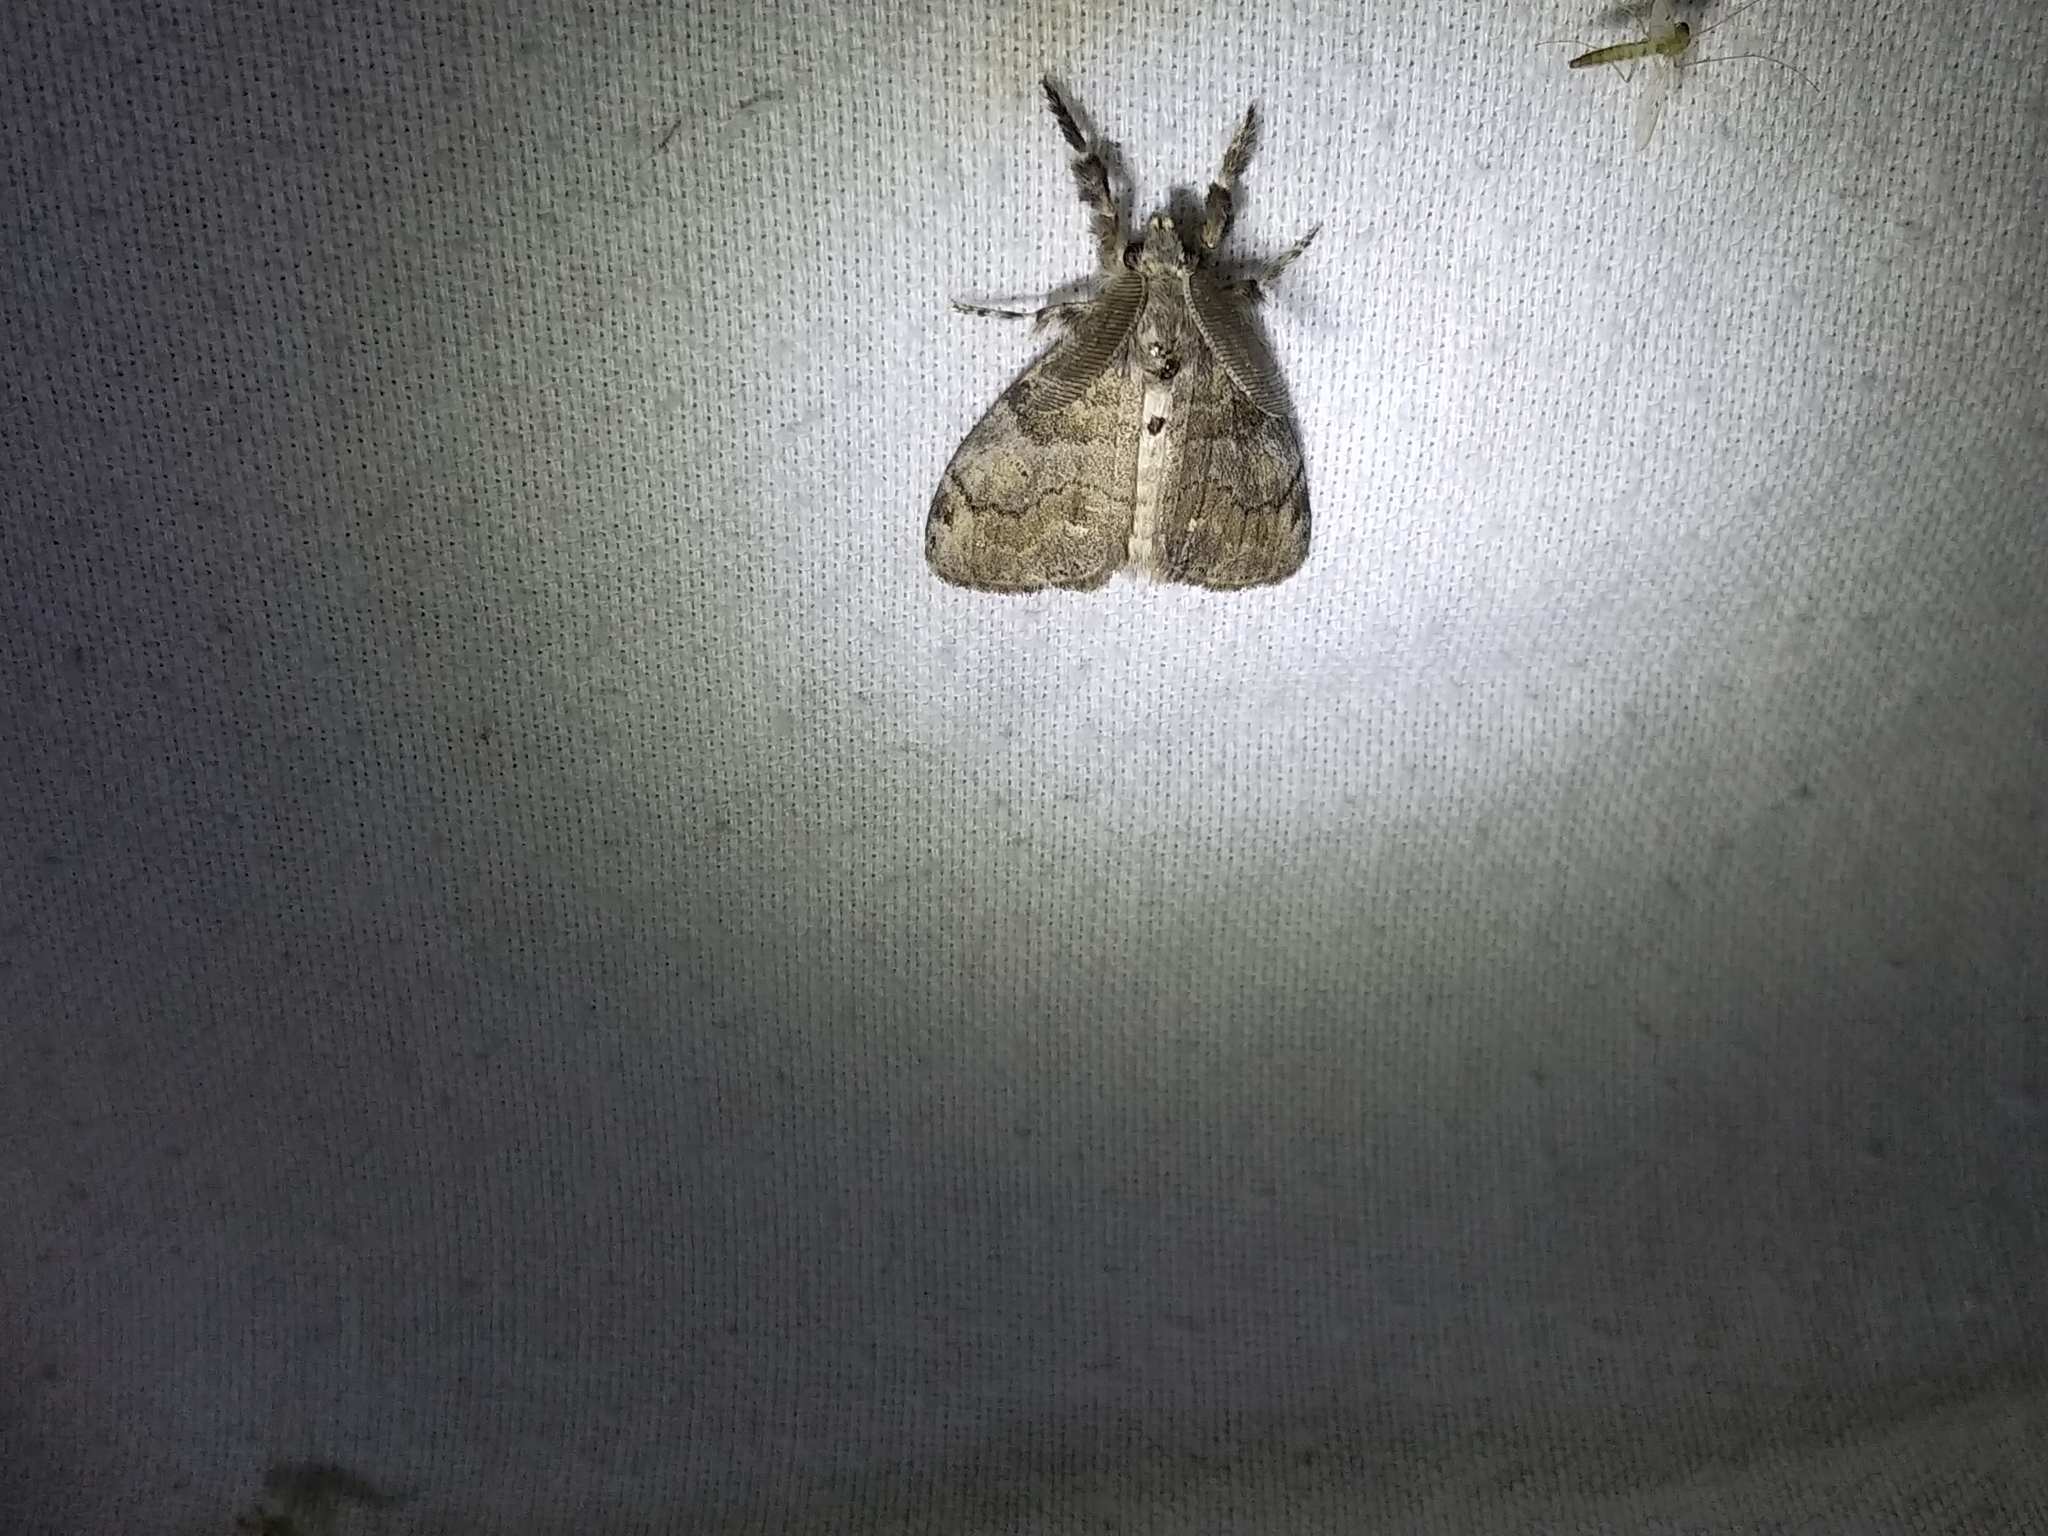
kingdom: Animalia
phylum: Arthropoda
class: Insecta
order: Lepidoptera
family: Erebidae
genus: Orgyia
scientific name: Orgyia leucostigma
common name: White-marked tussock moth
